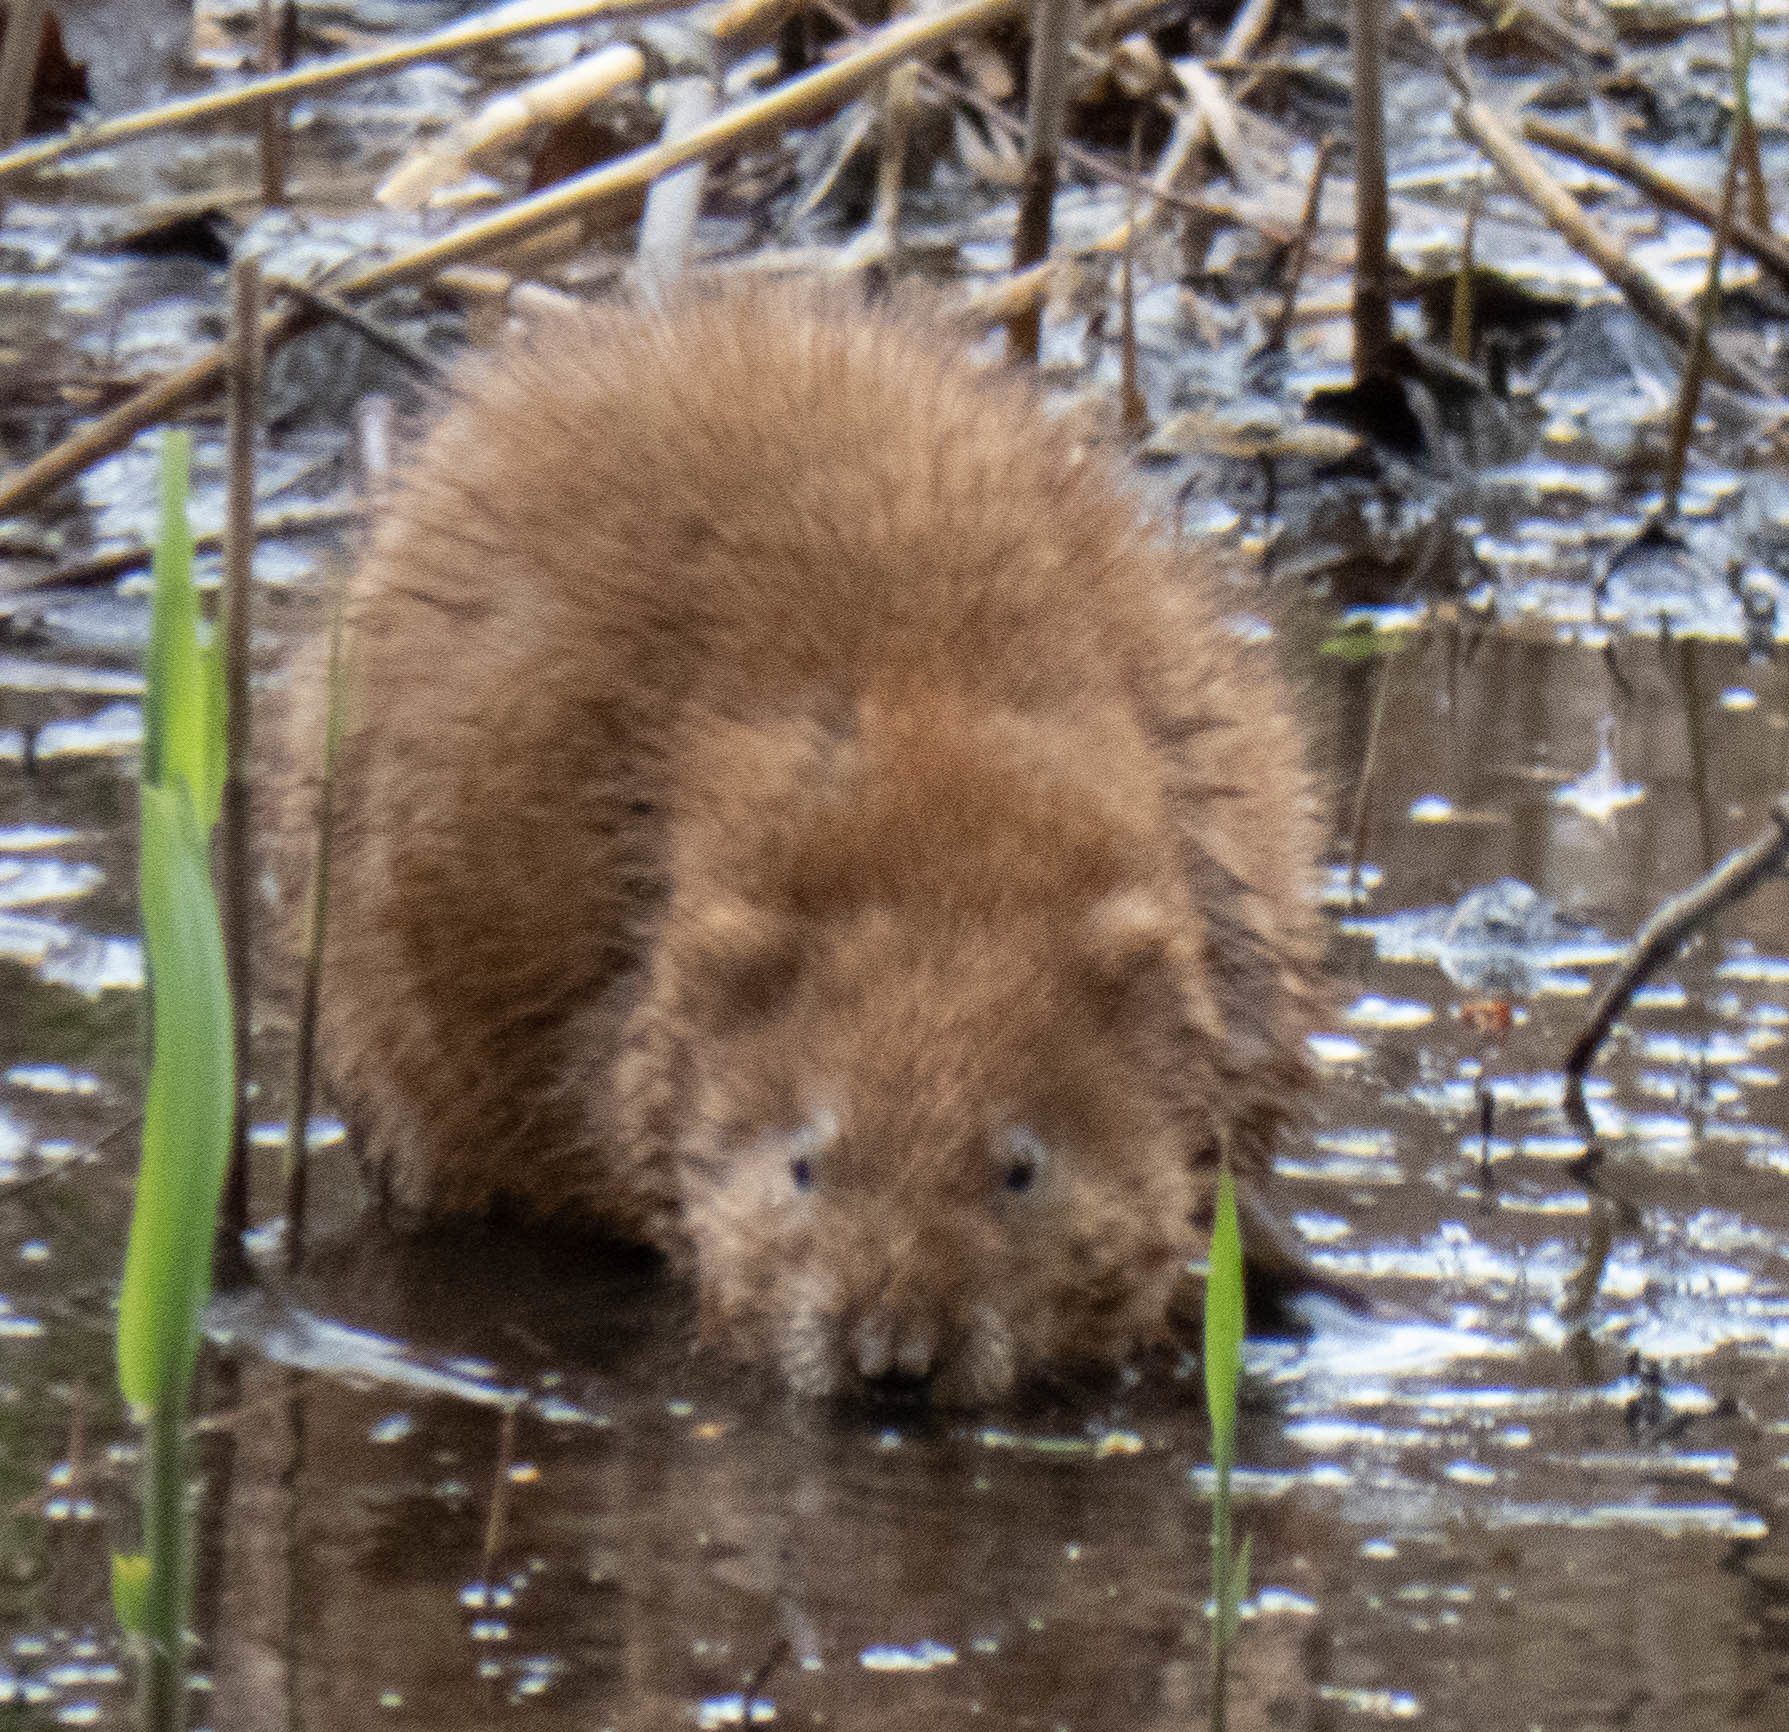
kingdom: Animalia
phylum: Chordata
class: Mammalia
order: Rodentia
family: Cricetidae
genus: Ondatra
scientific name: Ondatra zibethicus
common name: Muskrat
